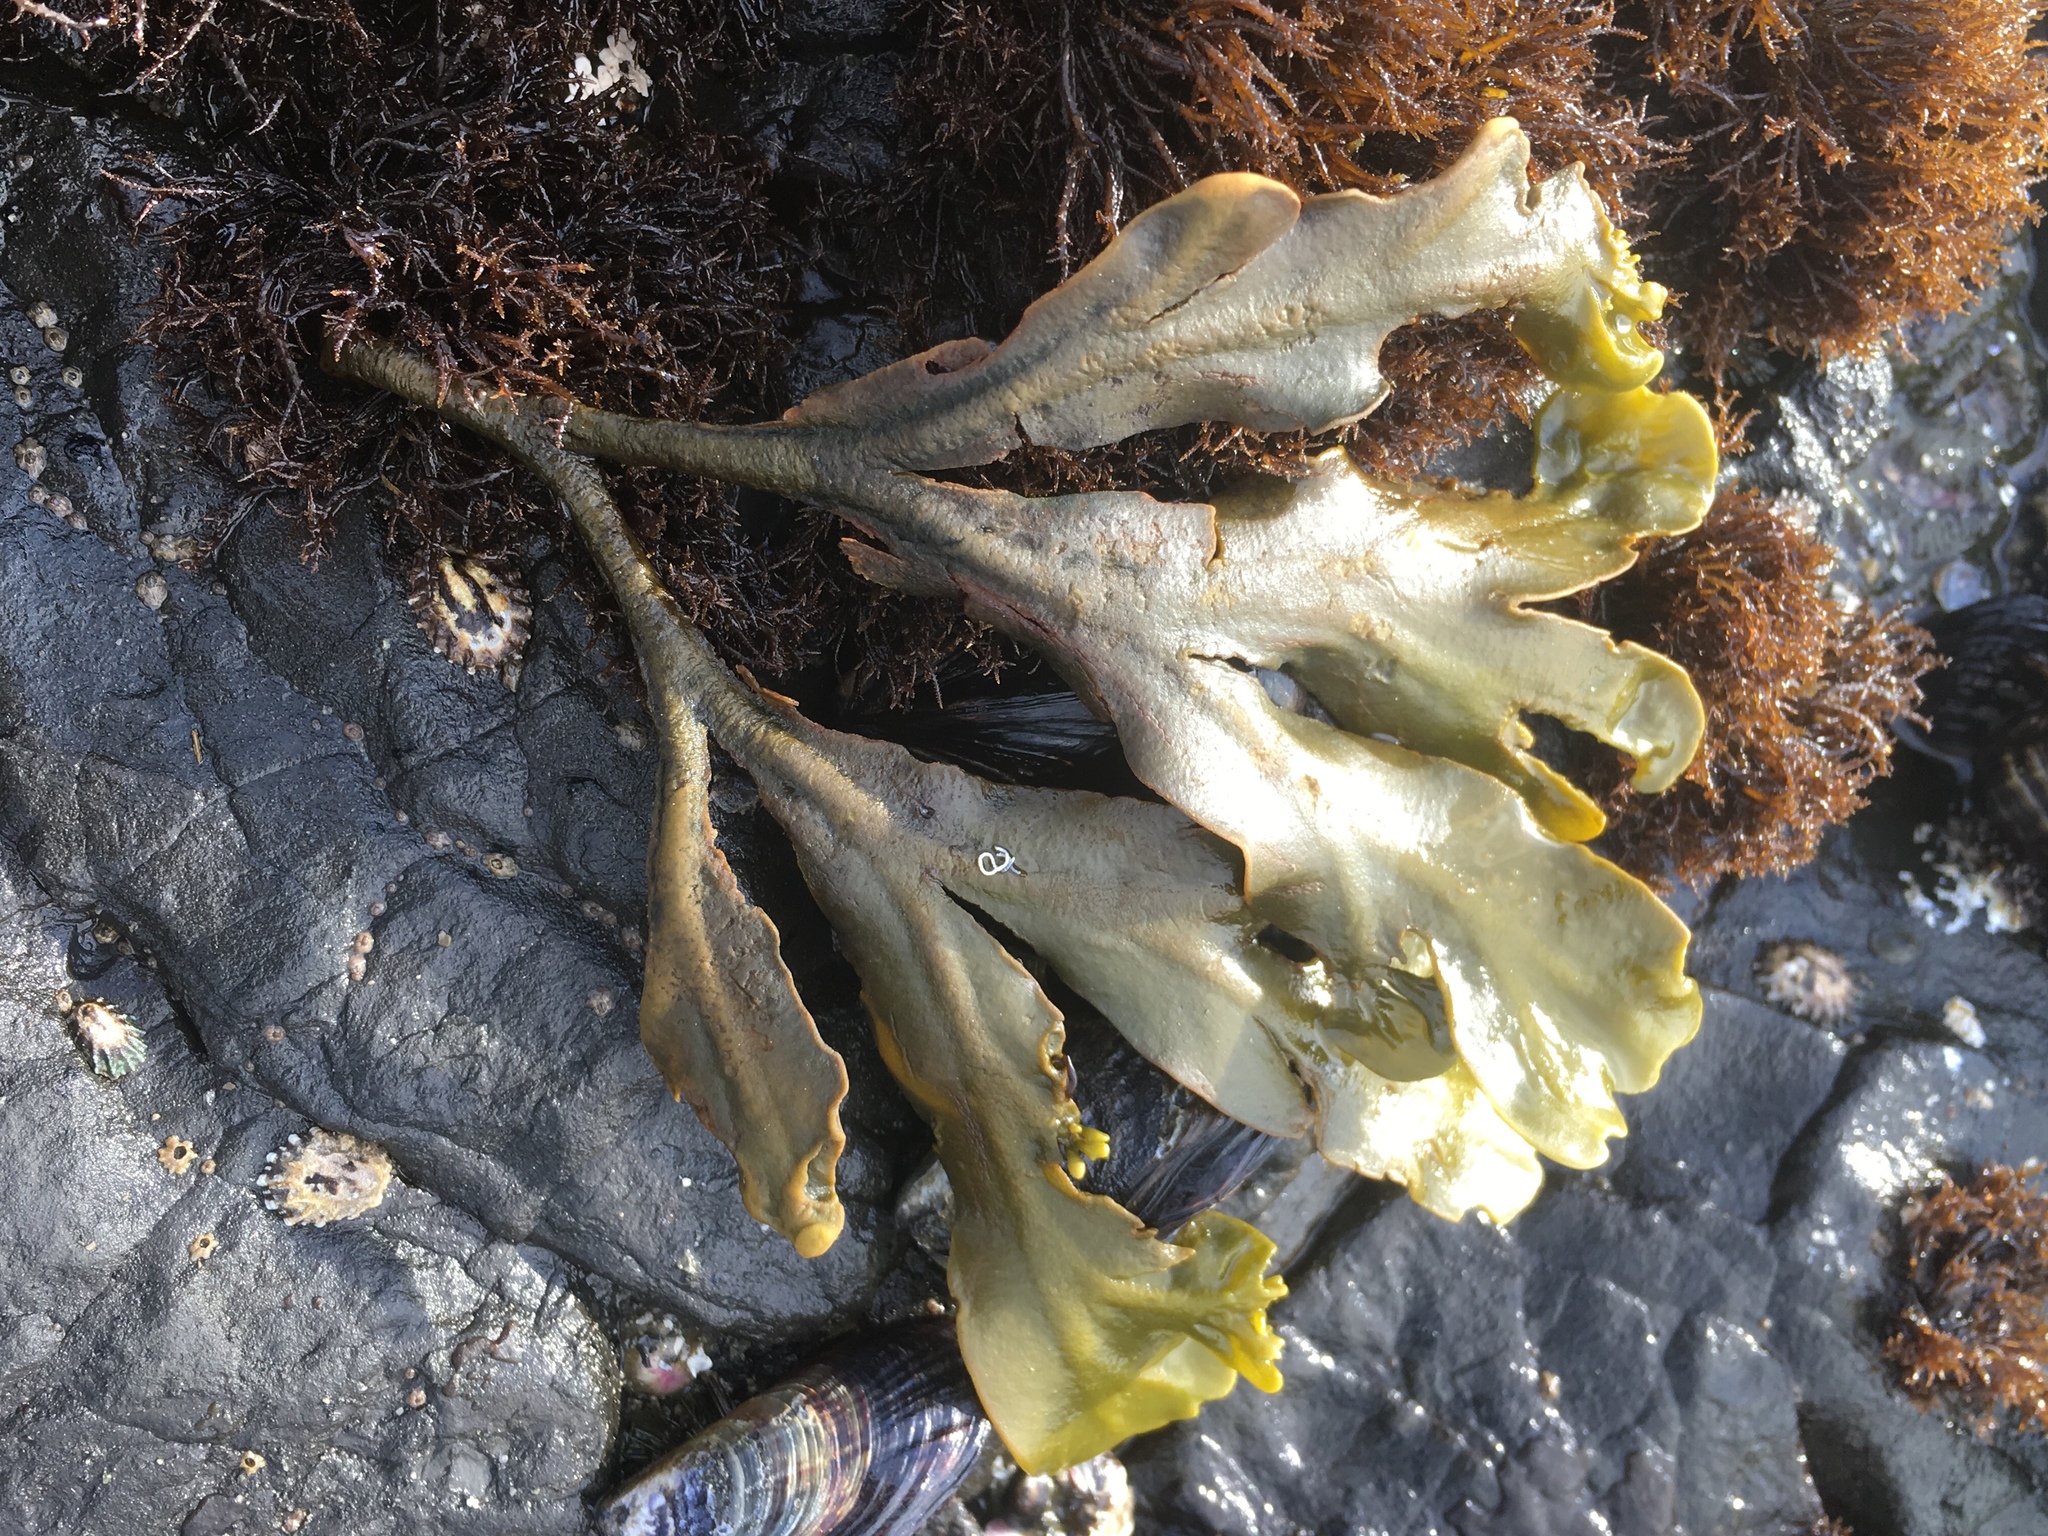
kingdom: Chromista
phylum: Ochrophyta
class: Phaeophyceae
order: Fucales
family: Fucaceae
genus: Fucus
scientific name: Fucus distichus
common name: Rockweed
